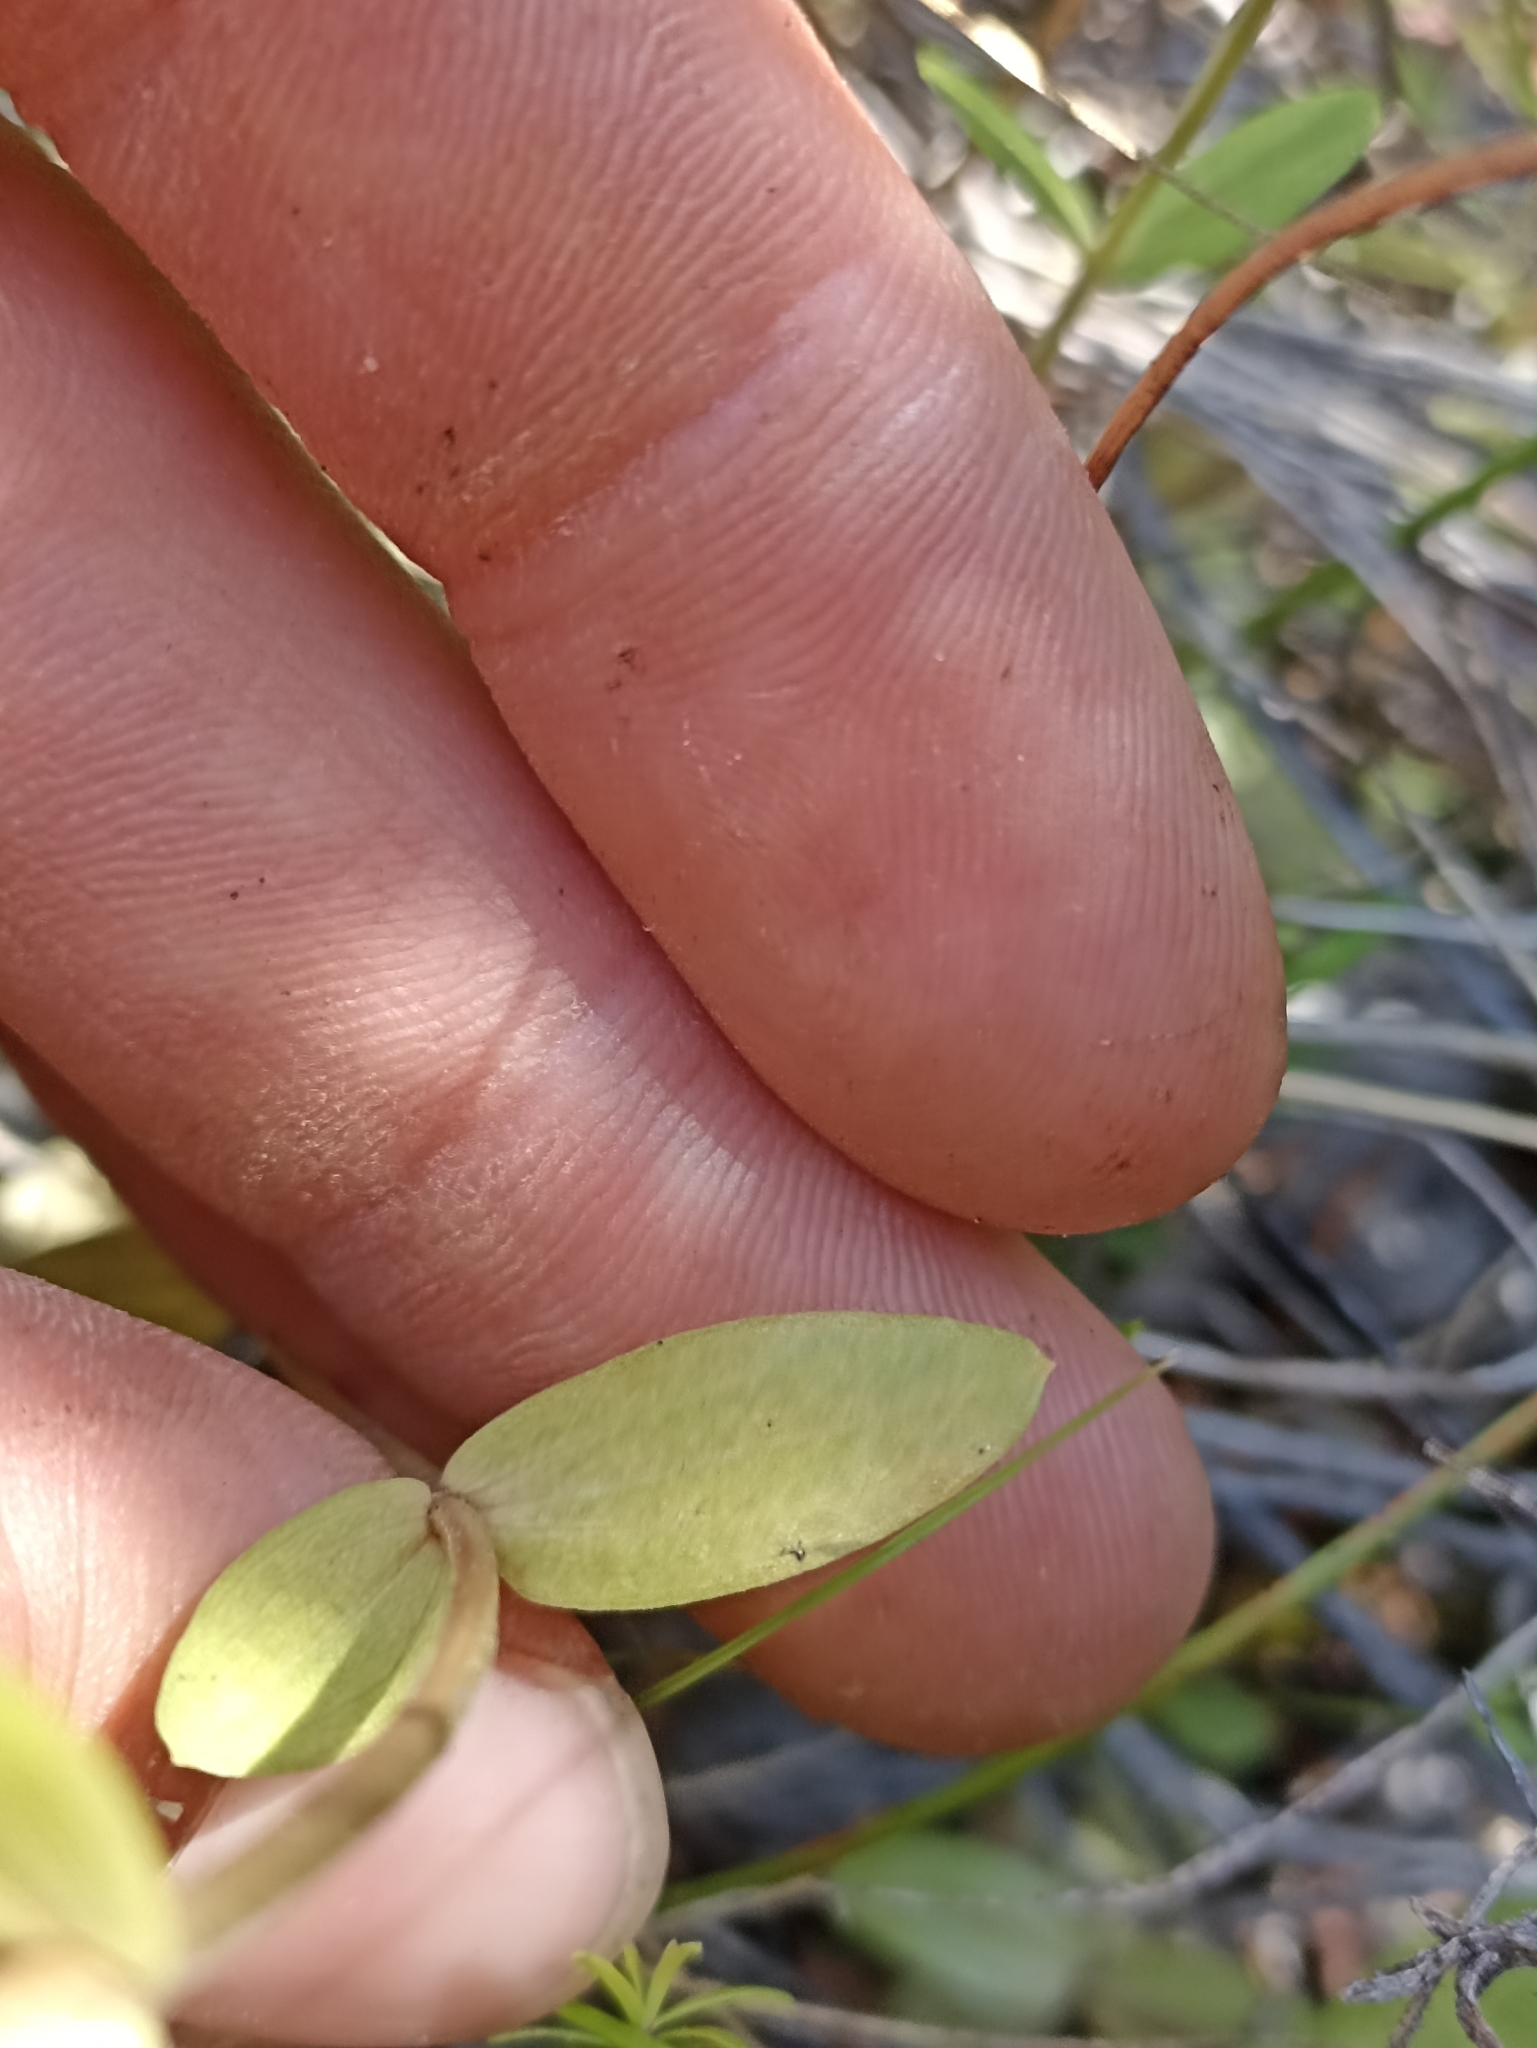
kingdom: Plantae
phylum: Tracheophyta
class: Magnoliopsida
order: Gentianales
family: Gentianaceae
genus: Centaurium
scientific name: Centaurium erythraea
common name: Common centaury
